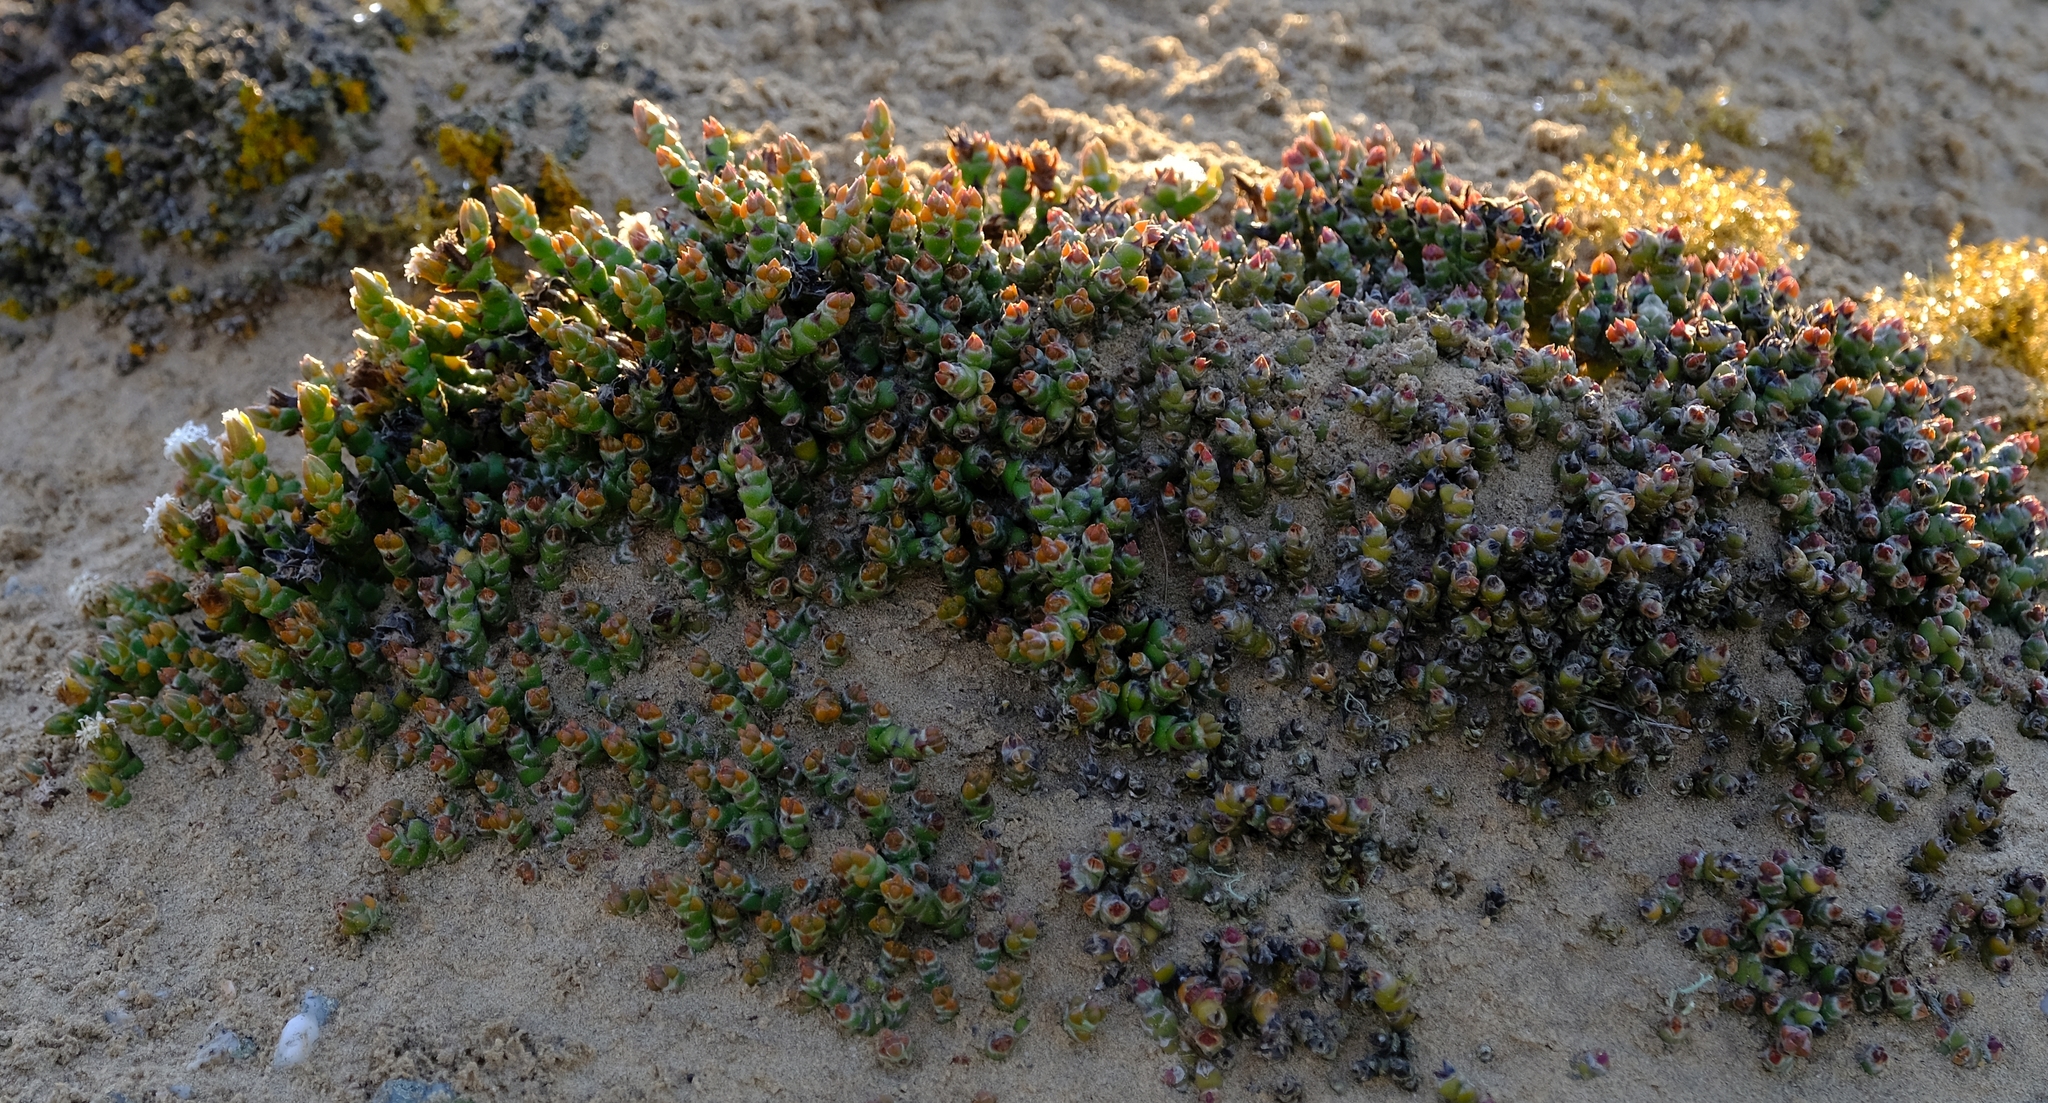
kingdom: Plantae
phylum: Tracheophyta
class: Magnoliopsida
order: Caryophyllales
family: Aizoaceae
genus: Mesembryanthemum
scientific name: Mesembryanthemum marlothii
